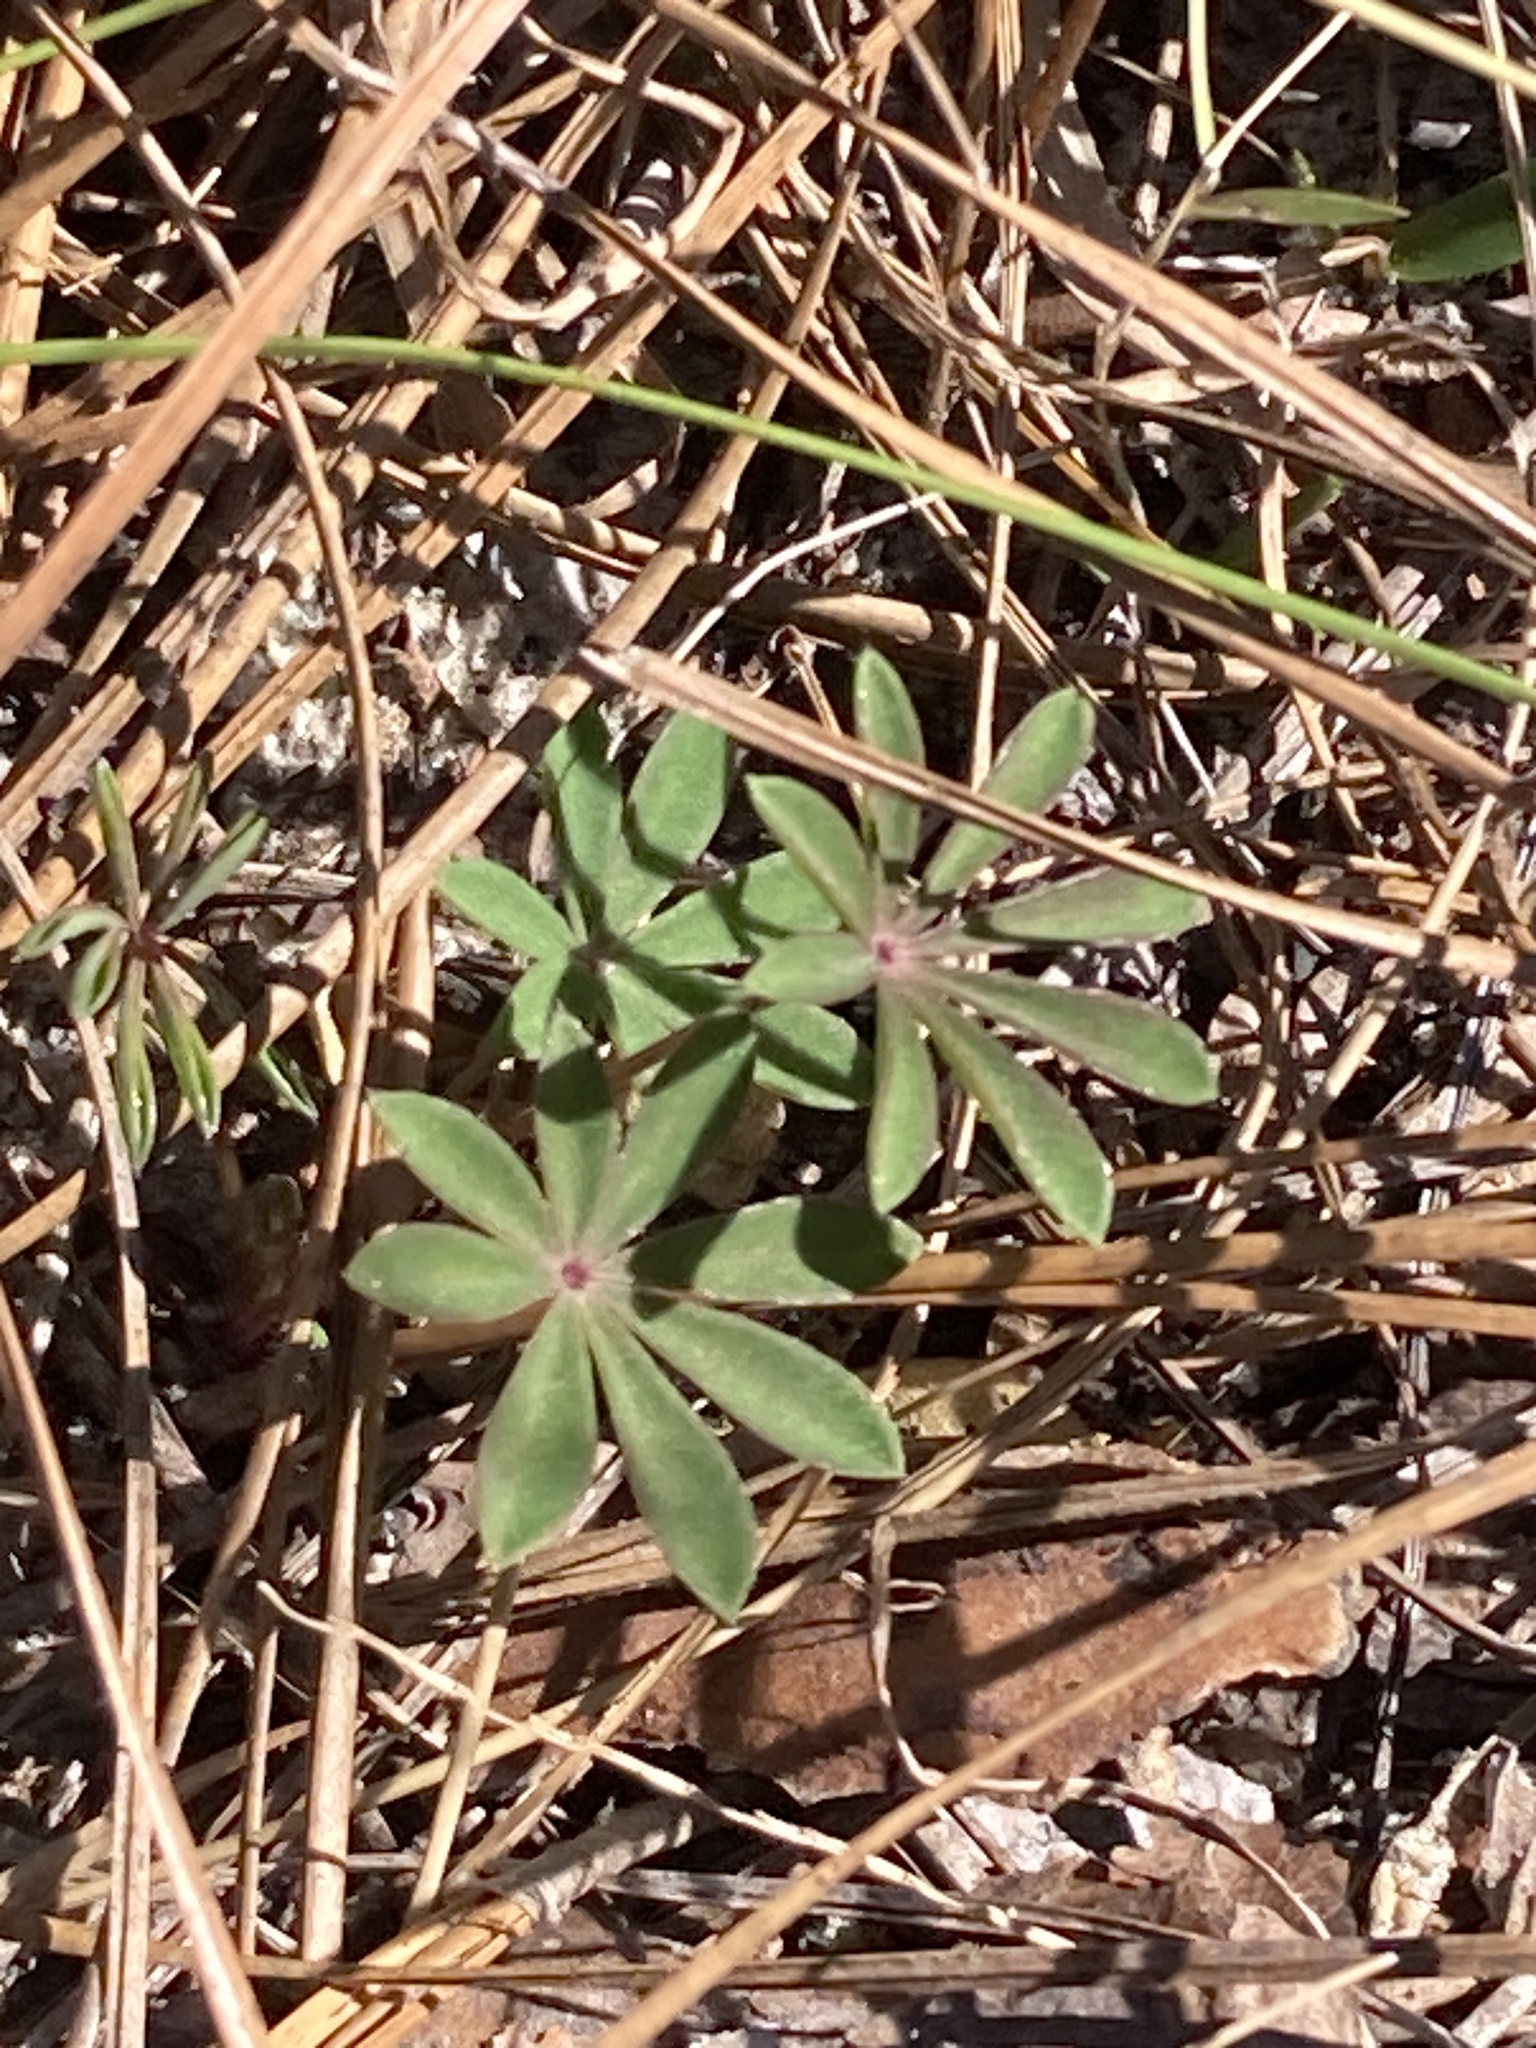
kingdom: Plantae
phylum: Tracheophyta
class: Magnoliopsida
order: Fabales
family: Fabaceae
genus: Lupinus
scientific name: Lupinus perennis
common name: Sundial lupine
